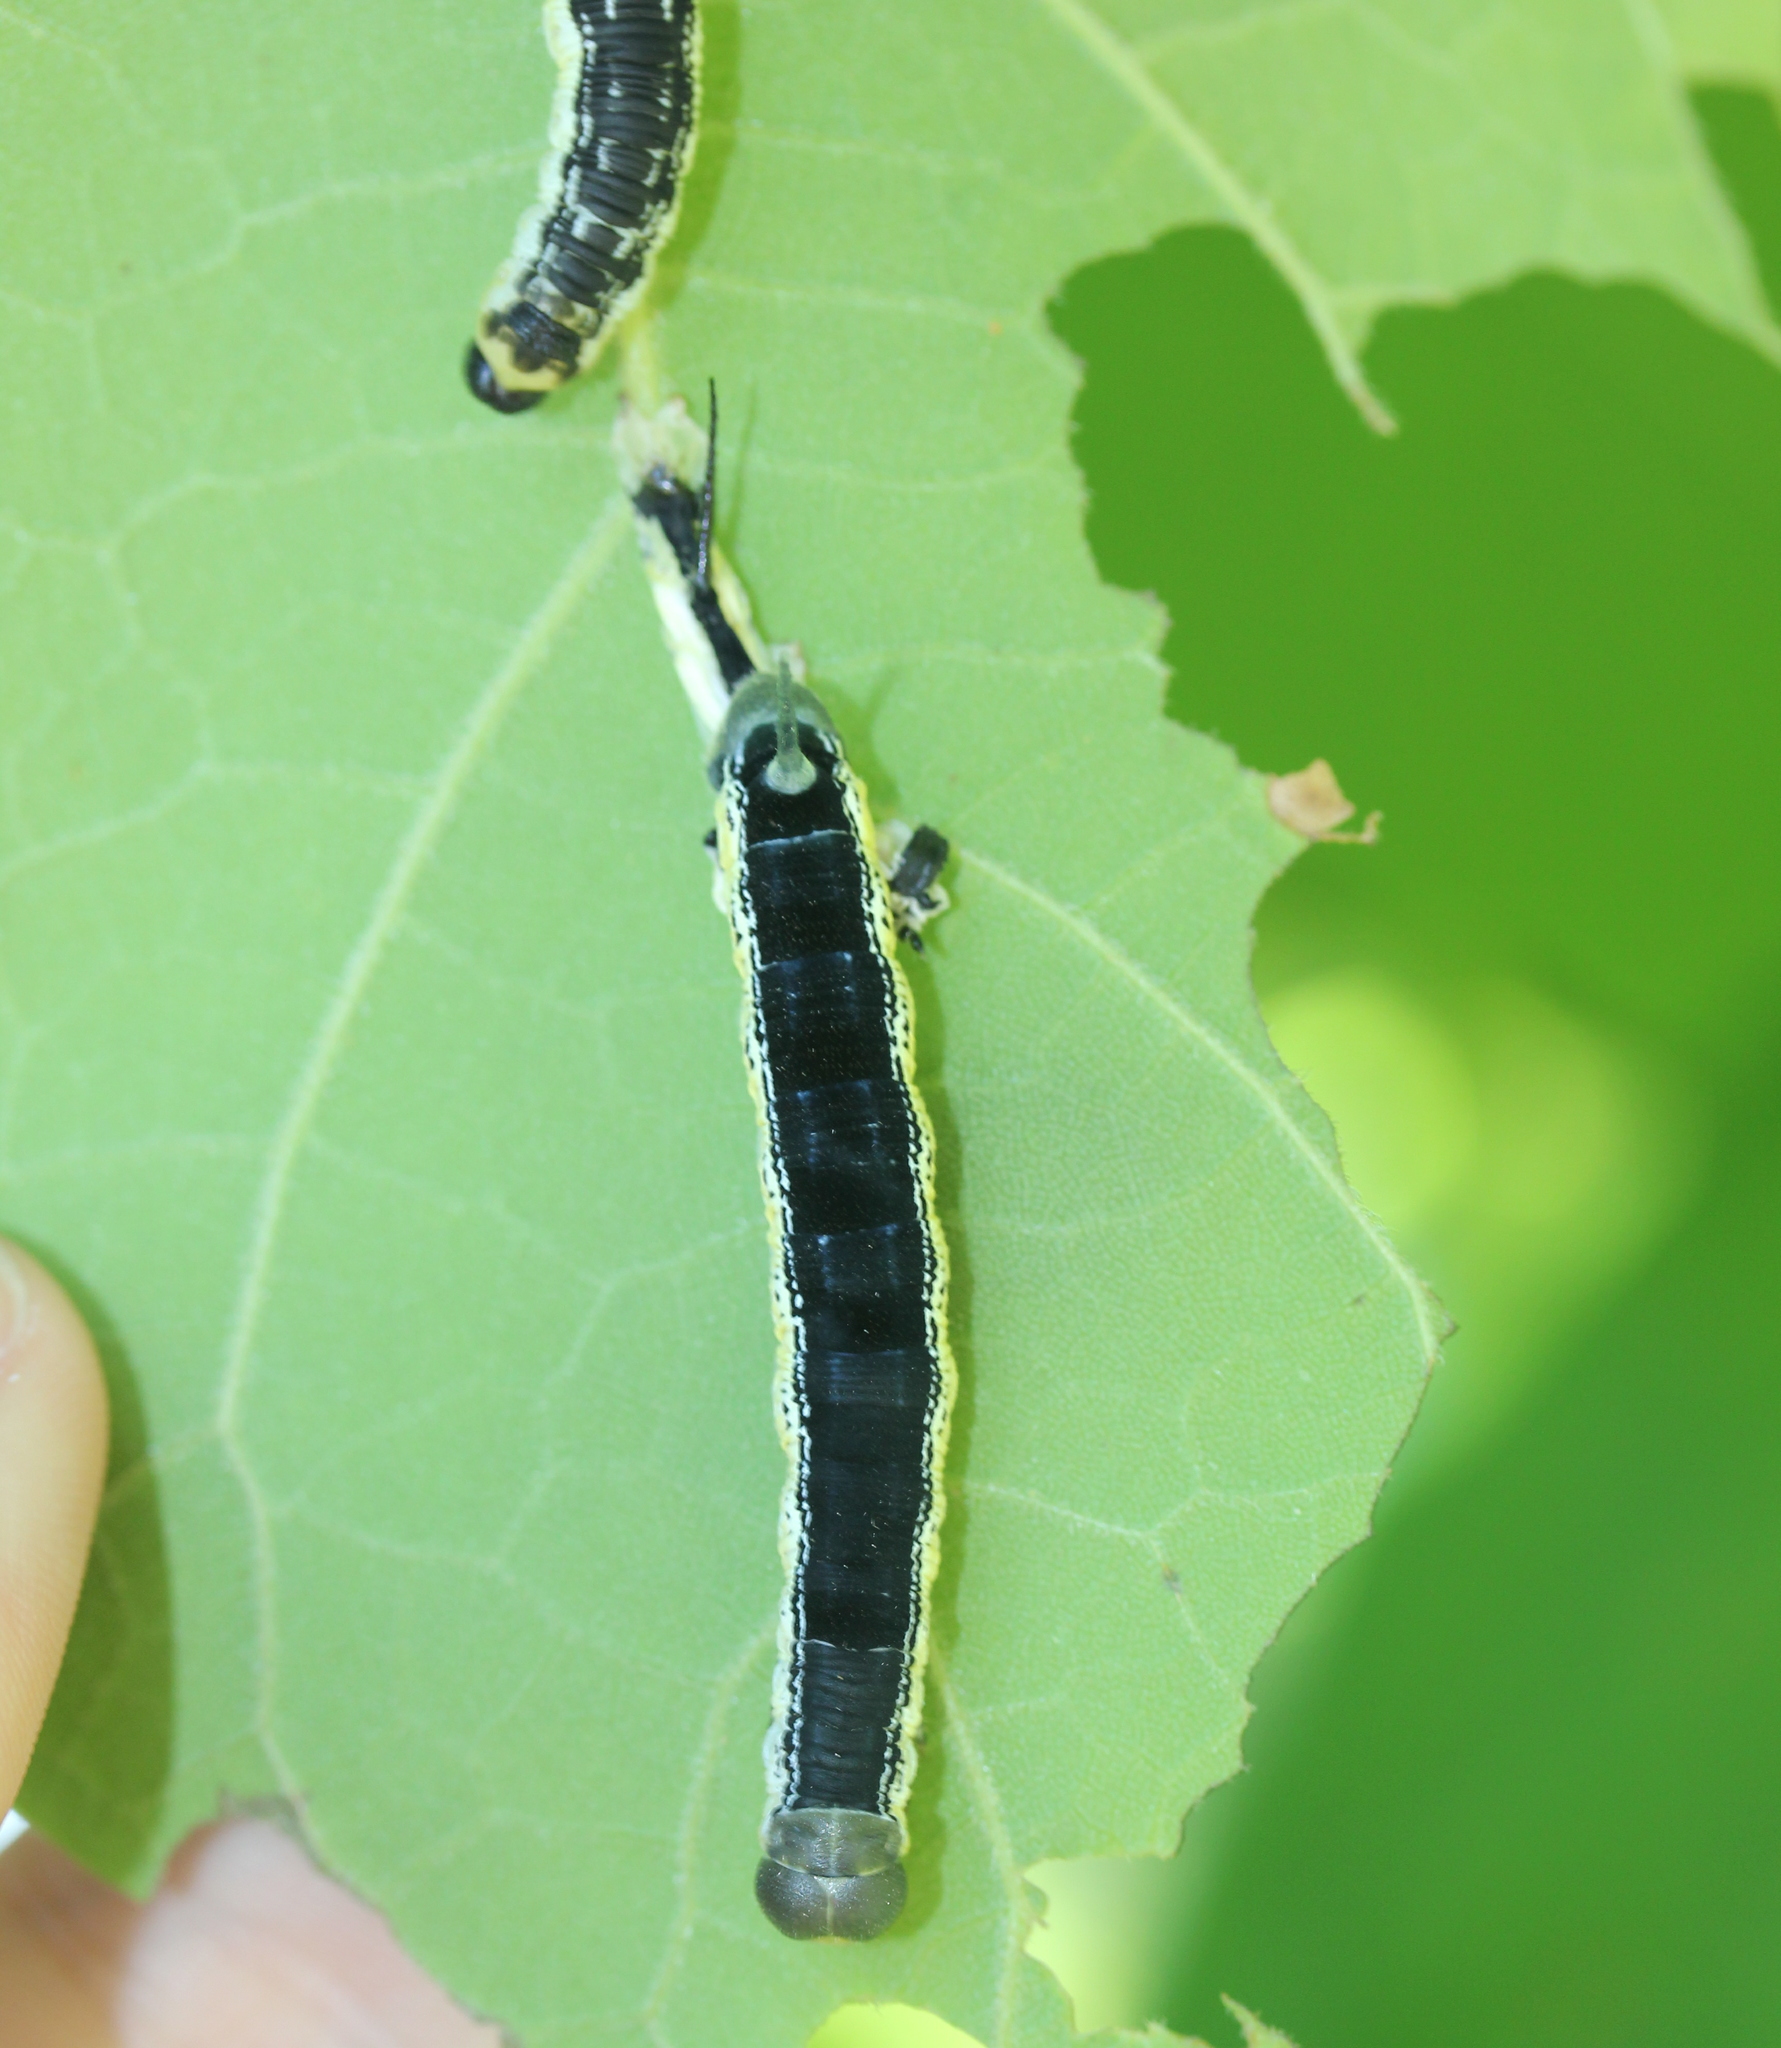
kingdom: Animalia
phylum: Arthropoda
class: Insecta
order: Lepidoptera
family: Sphingidae
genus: Ceratomia
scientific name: Ceratomia catalpae
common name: Catalpa hornworm
